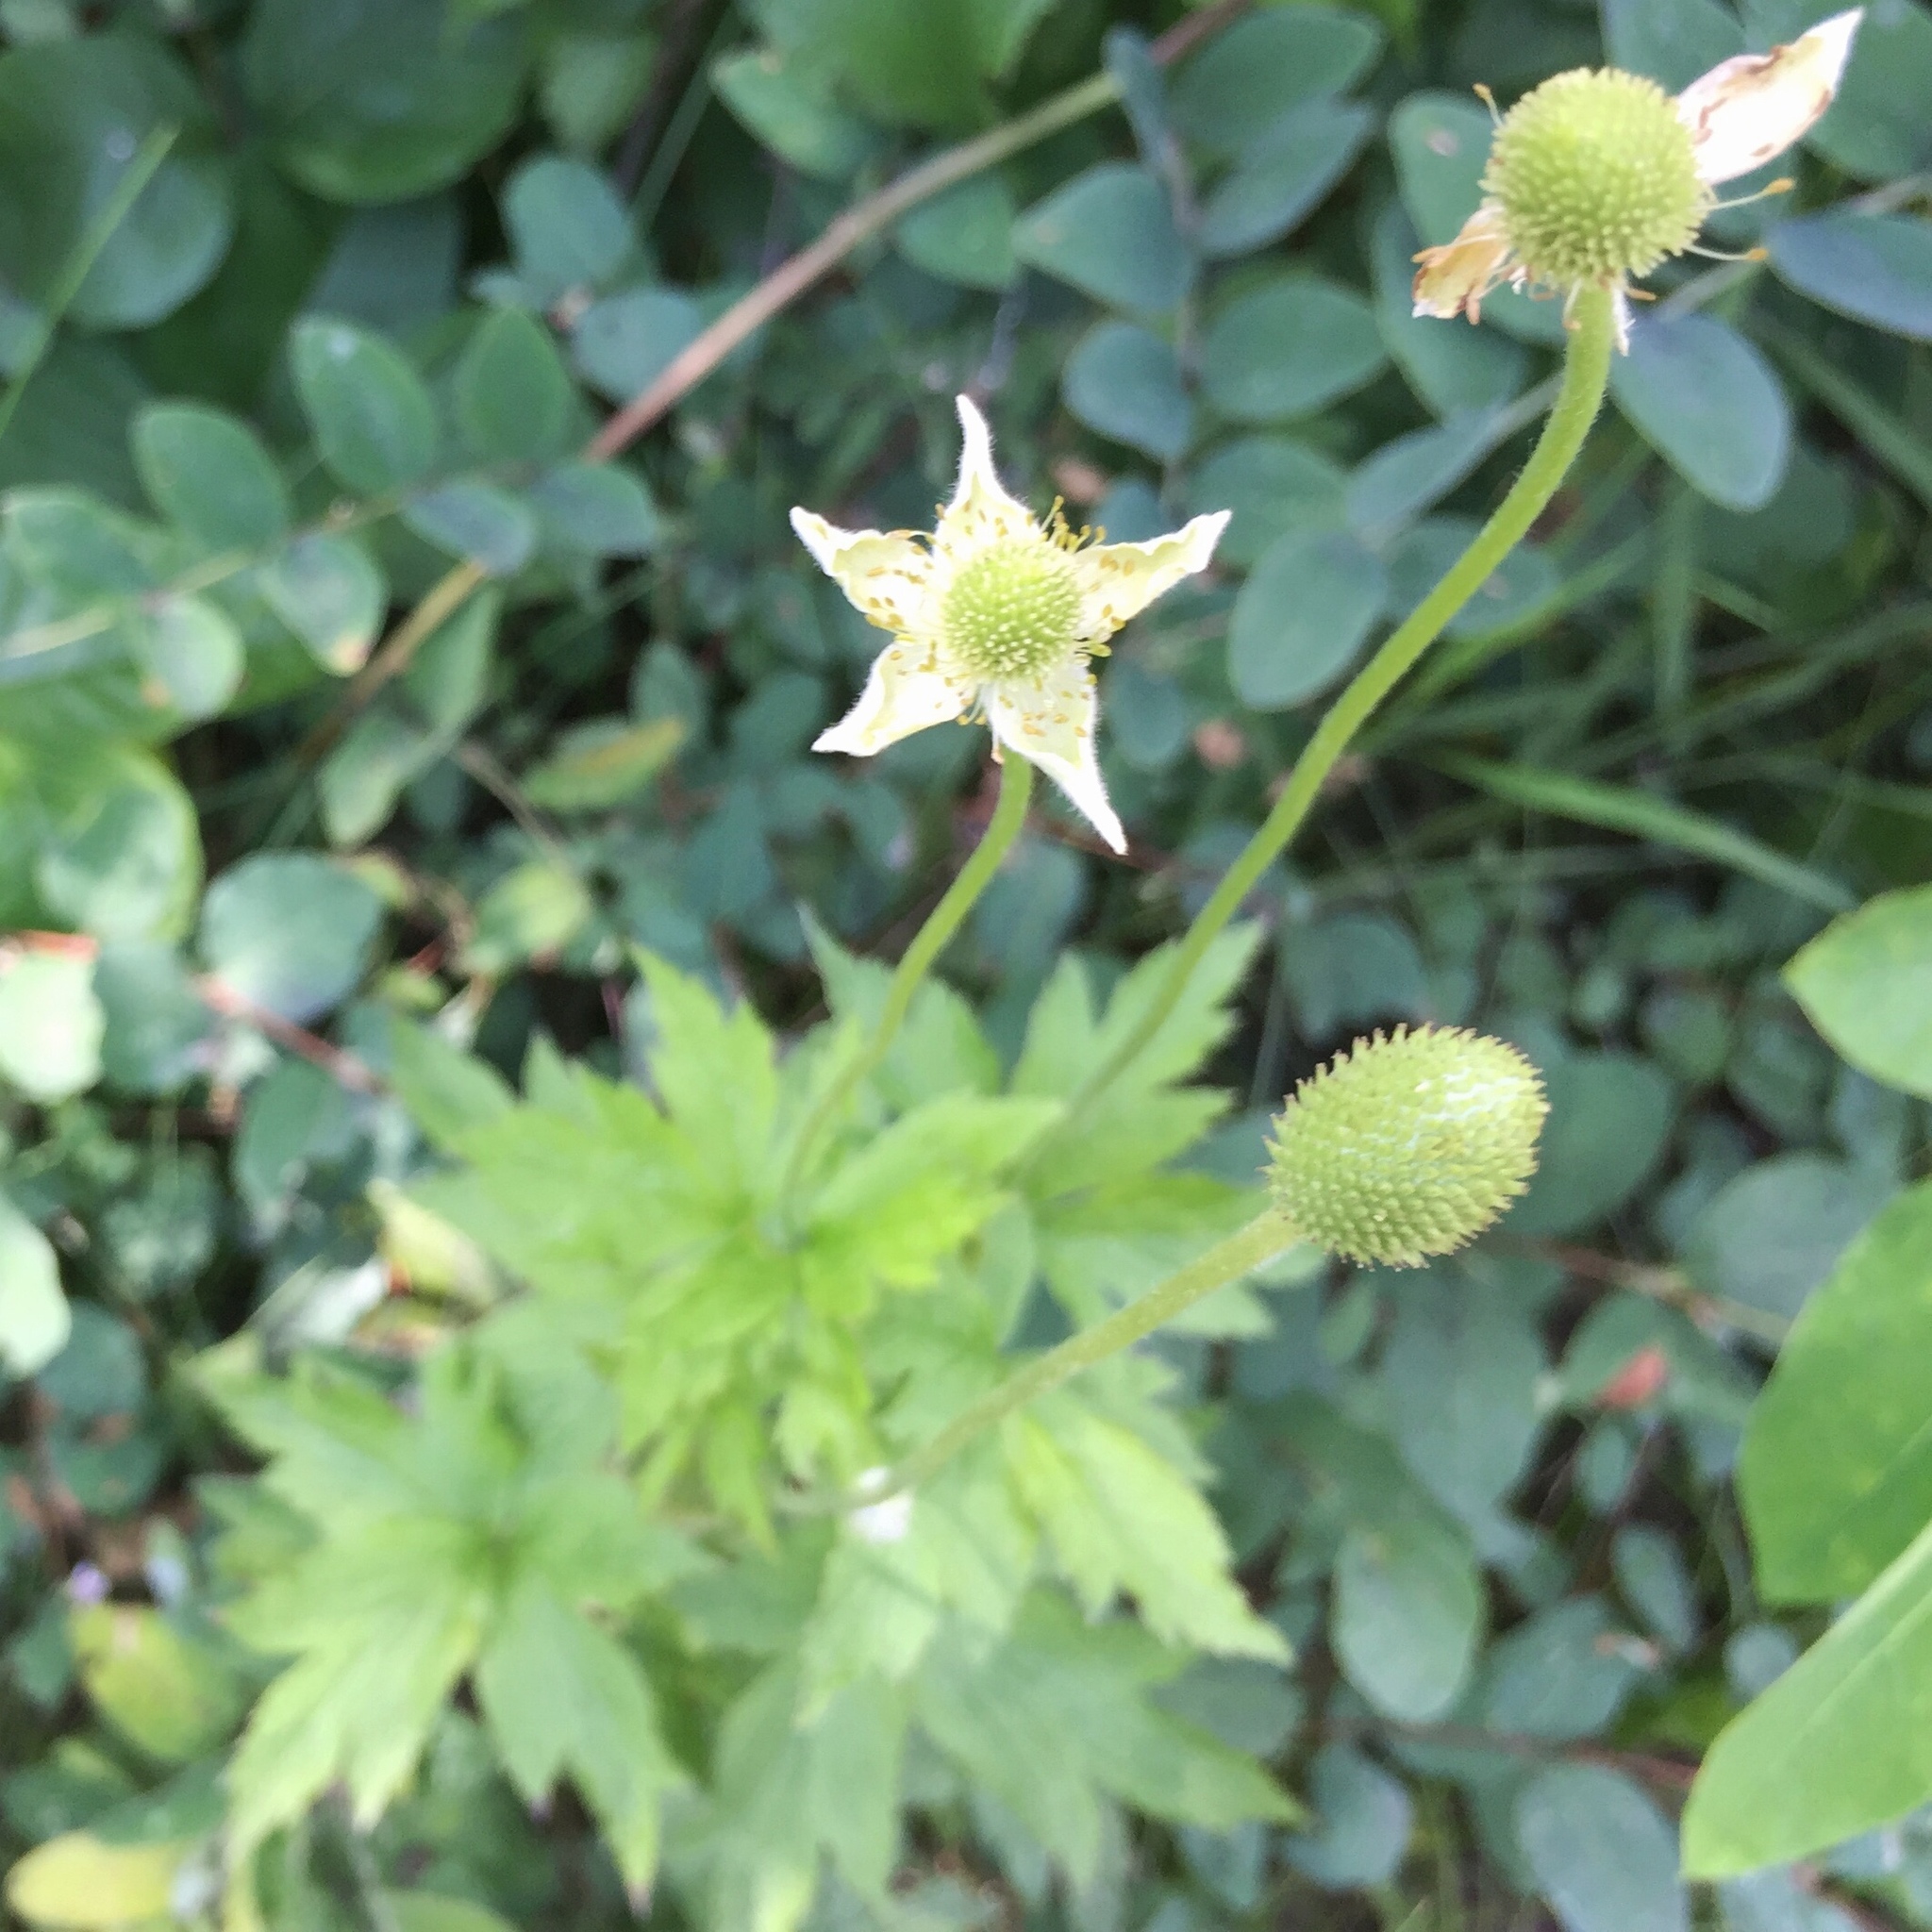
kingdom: Plantae
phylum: Tracheophyta
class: Magnoliopsida
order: Ranunculales
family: Ranunculaceae
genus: Anemone
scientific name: Anemone cylindrica
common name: Candle anemone
